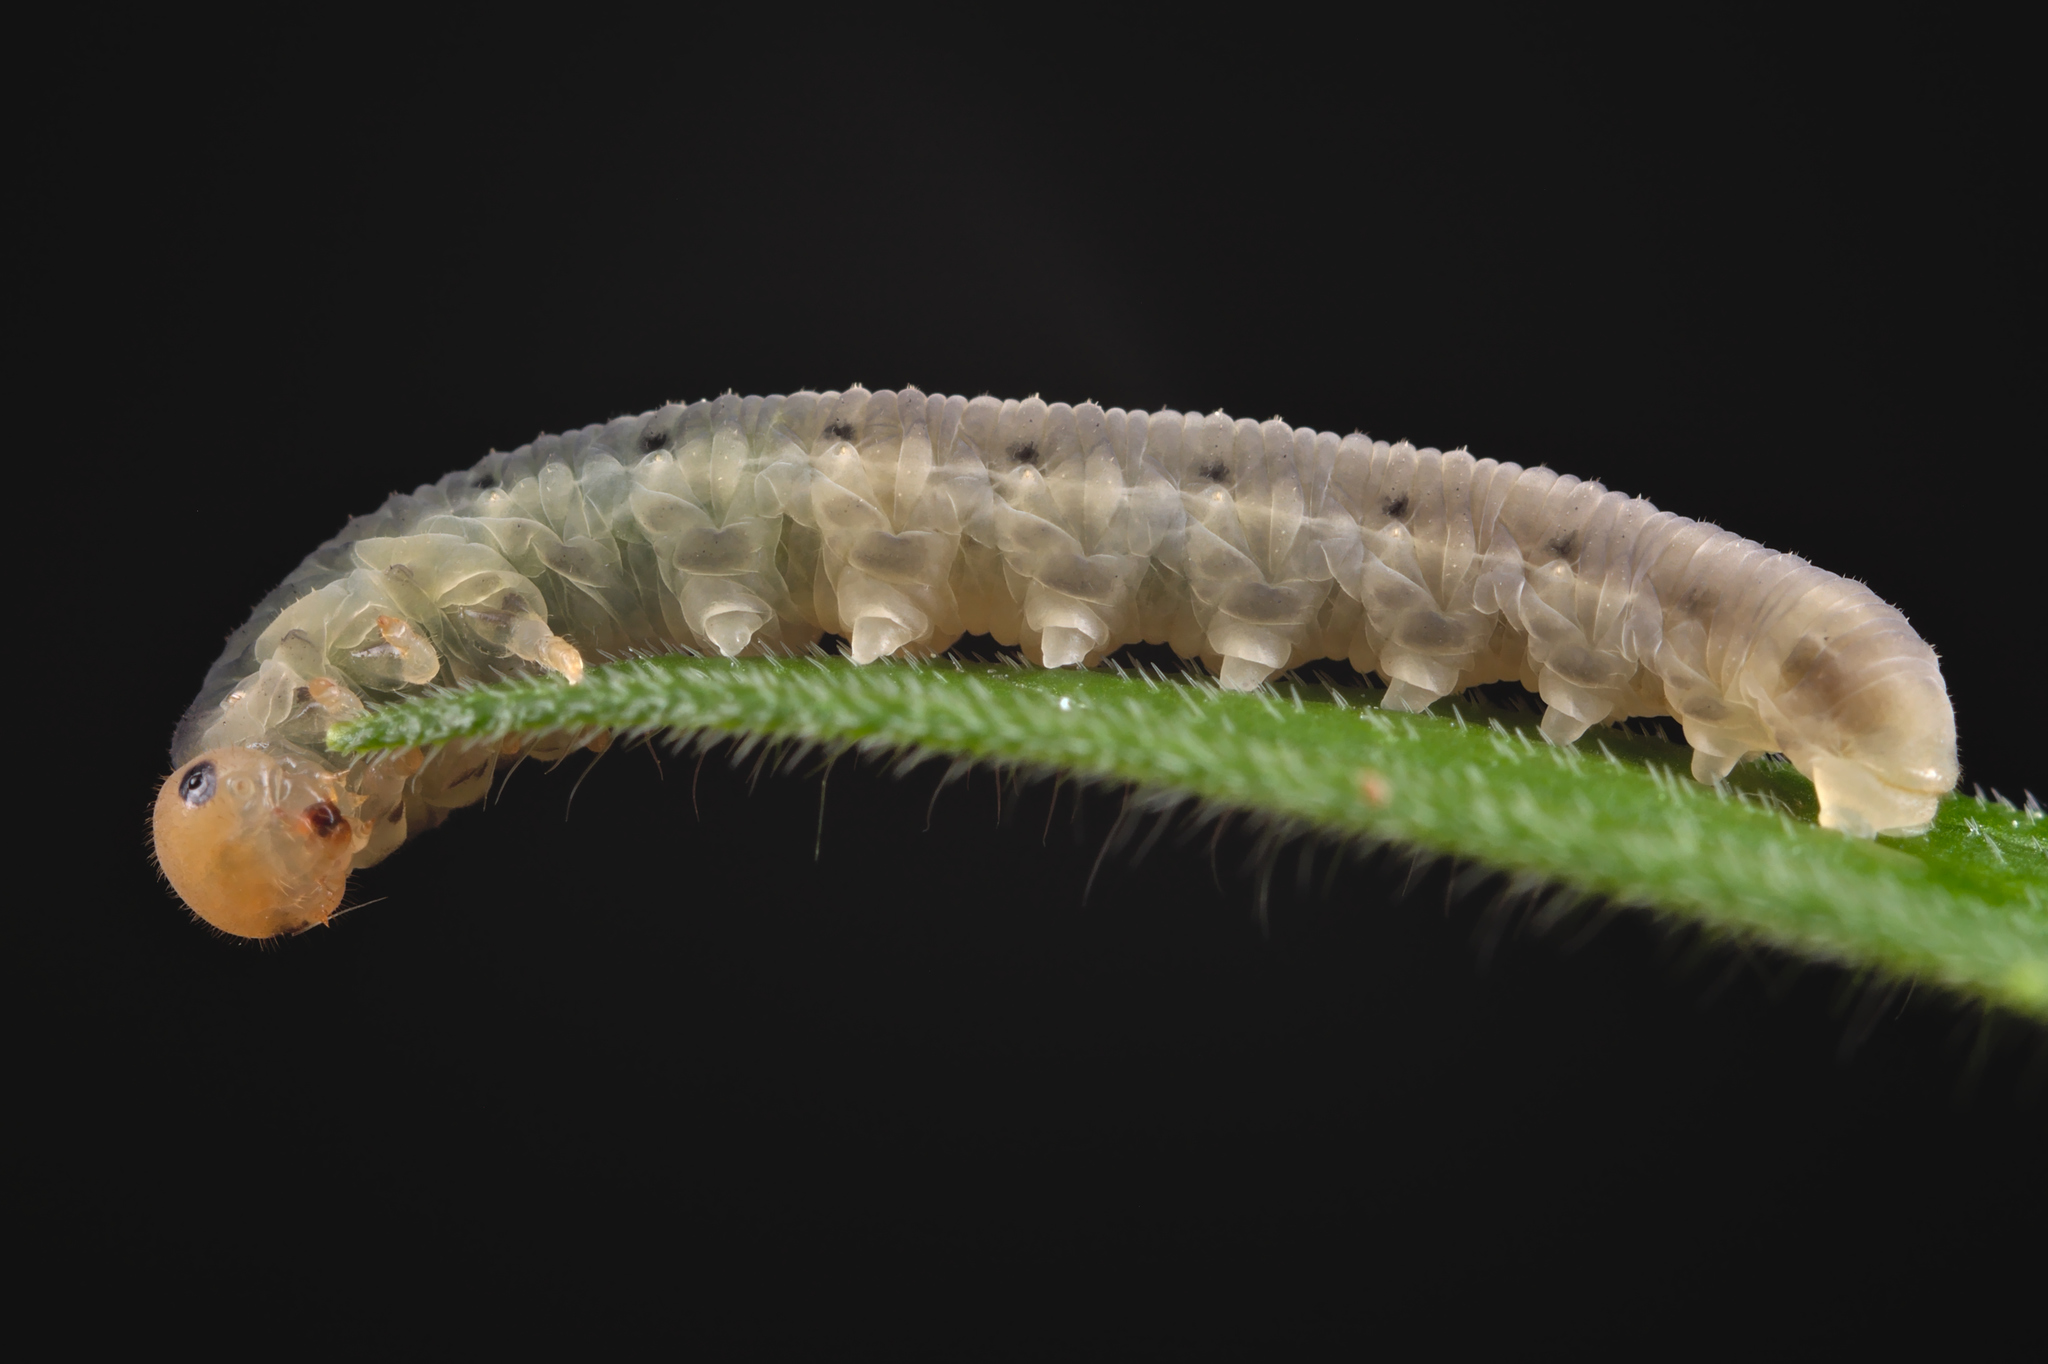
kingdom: Animalia
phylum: Arthropoda
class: Insecta
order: Hymenoptera
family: Tenthredinidae
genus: Macrophya
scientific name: Macrophya albicincta
